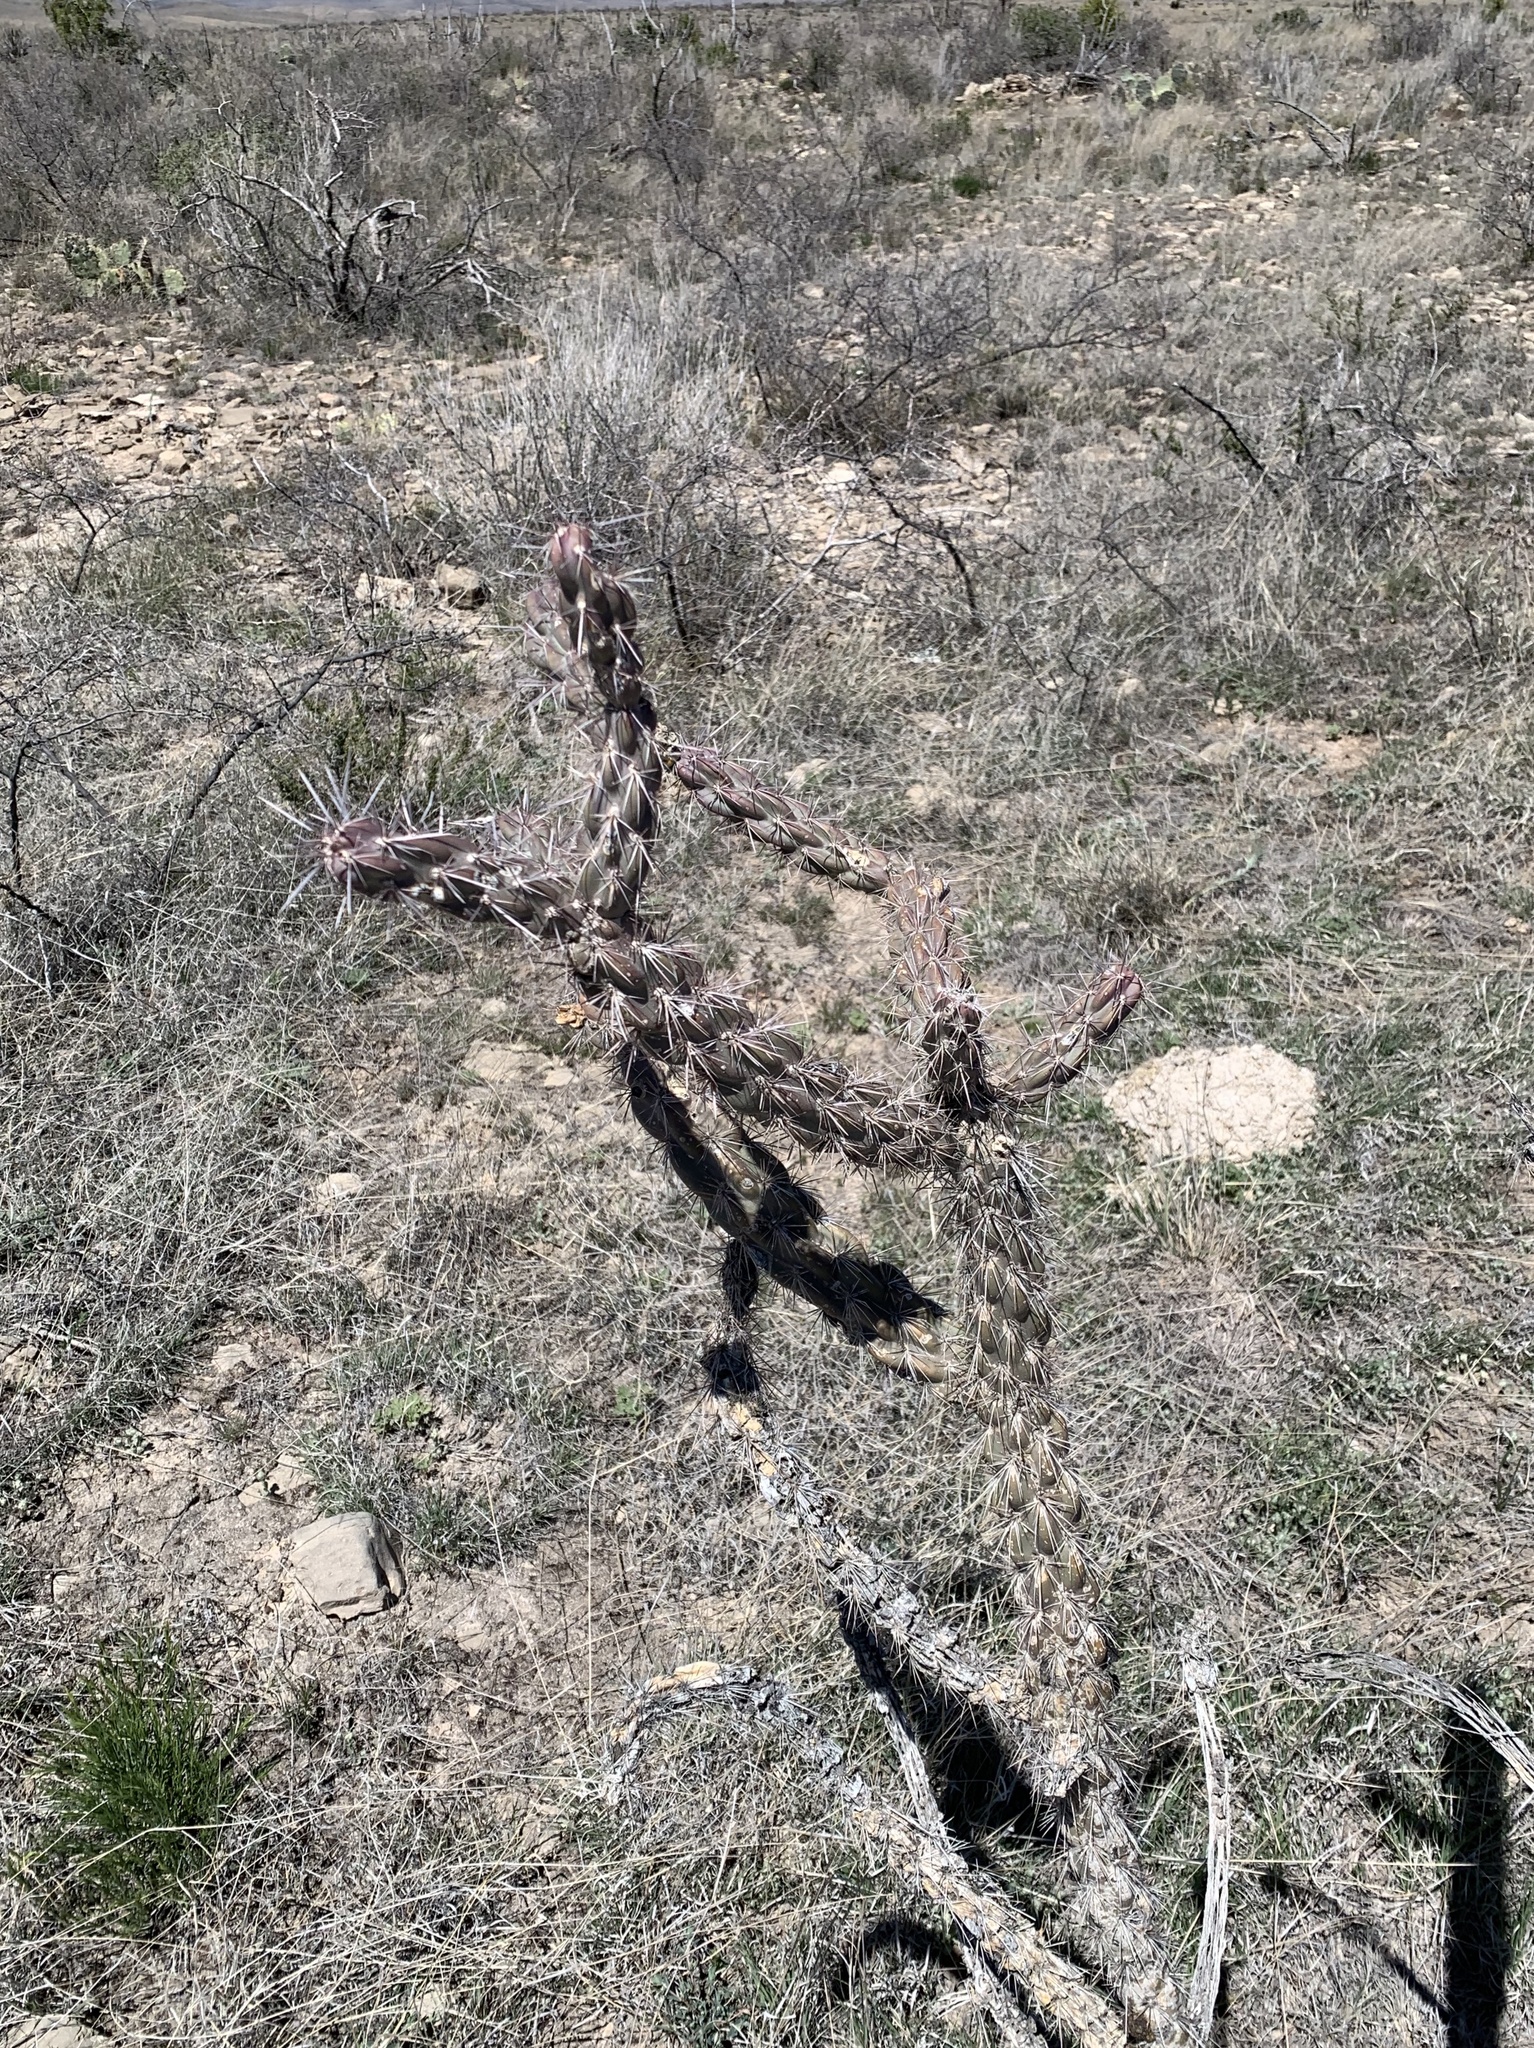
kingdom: Plantae
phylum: Tracheophyta
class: Magnoliopsida
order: Caryophyllales
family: Cactaceae
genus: Cylindropuntia
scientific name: Cylindropuntia imbricata
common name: Candelabrum cactus
